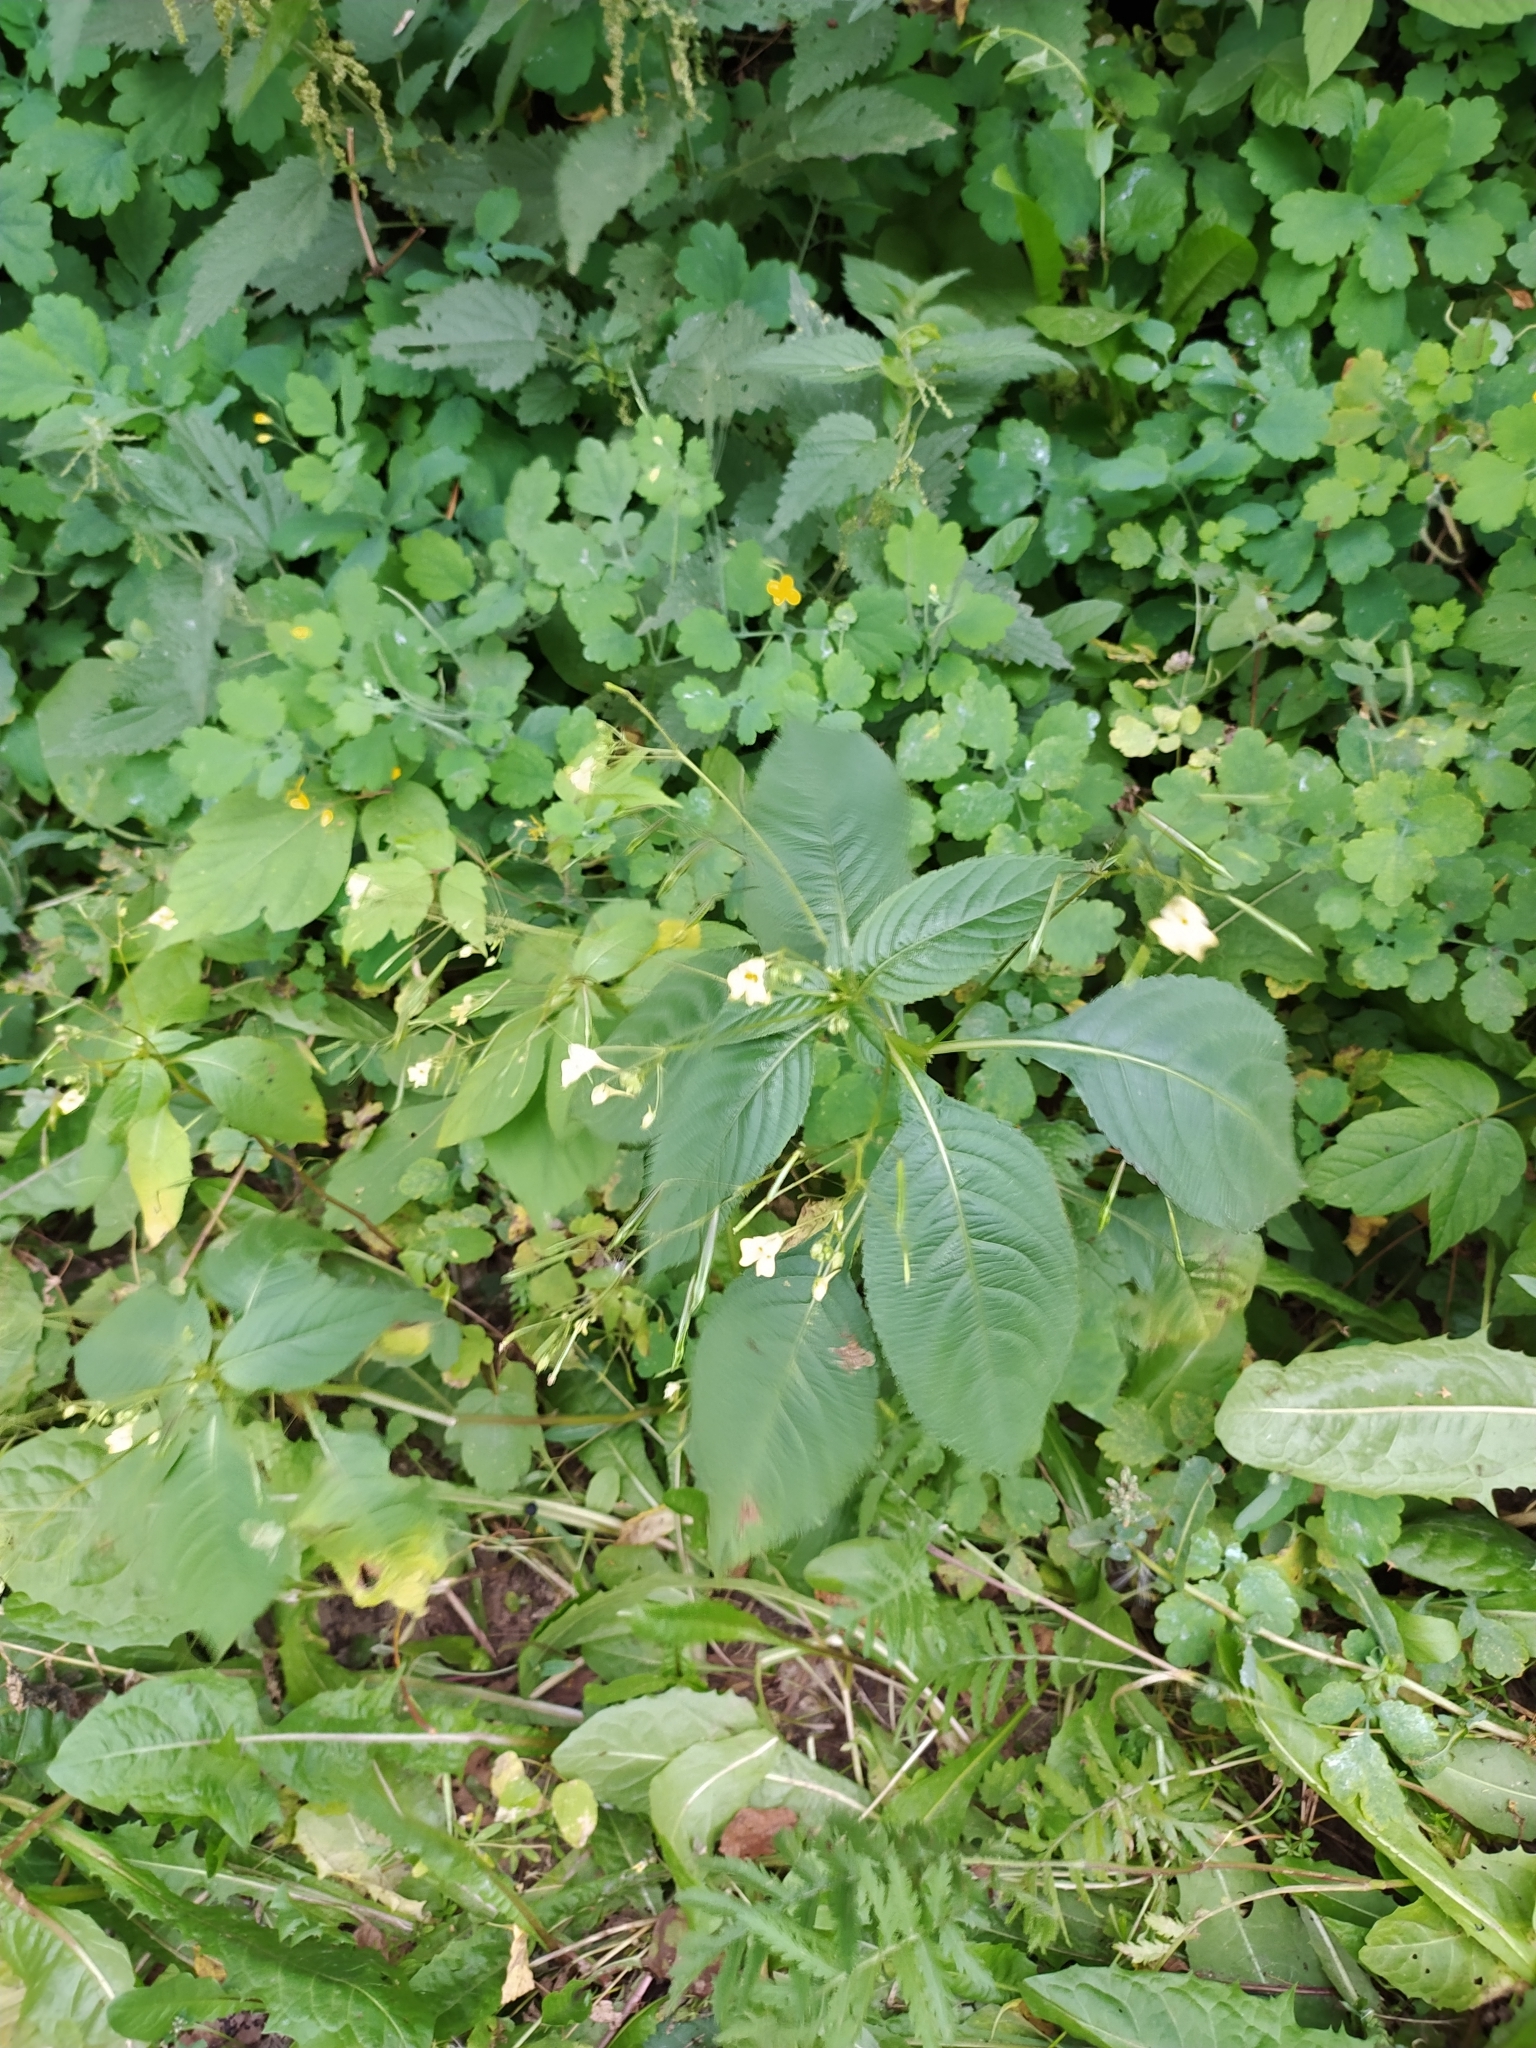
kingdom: Plantae
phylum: Tracheophyta
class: Magnoliopsida
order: Ericales
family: Balsaminaceae
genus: Impatiens
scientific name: Impatiens parviflora
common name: Small balsam
